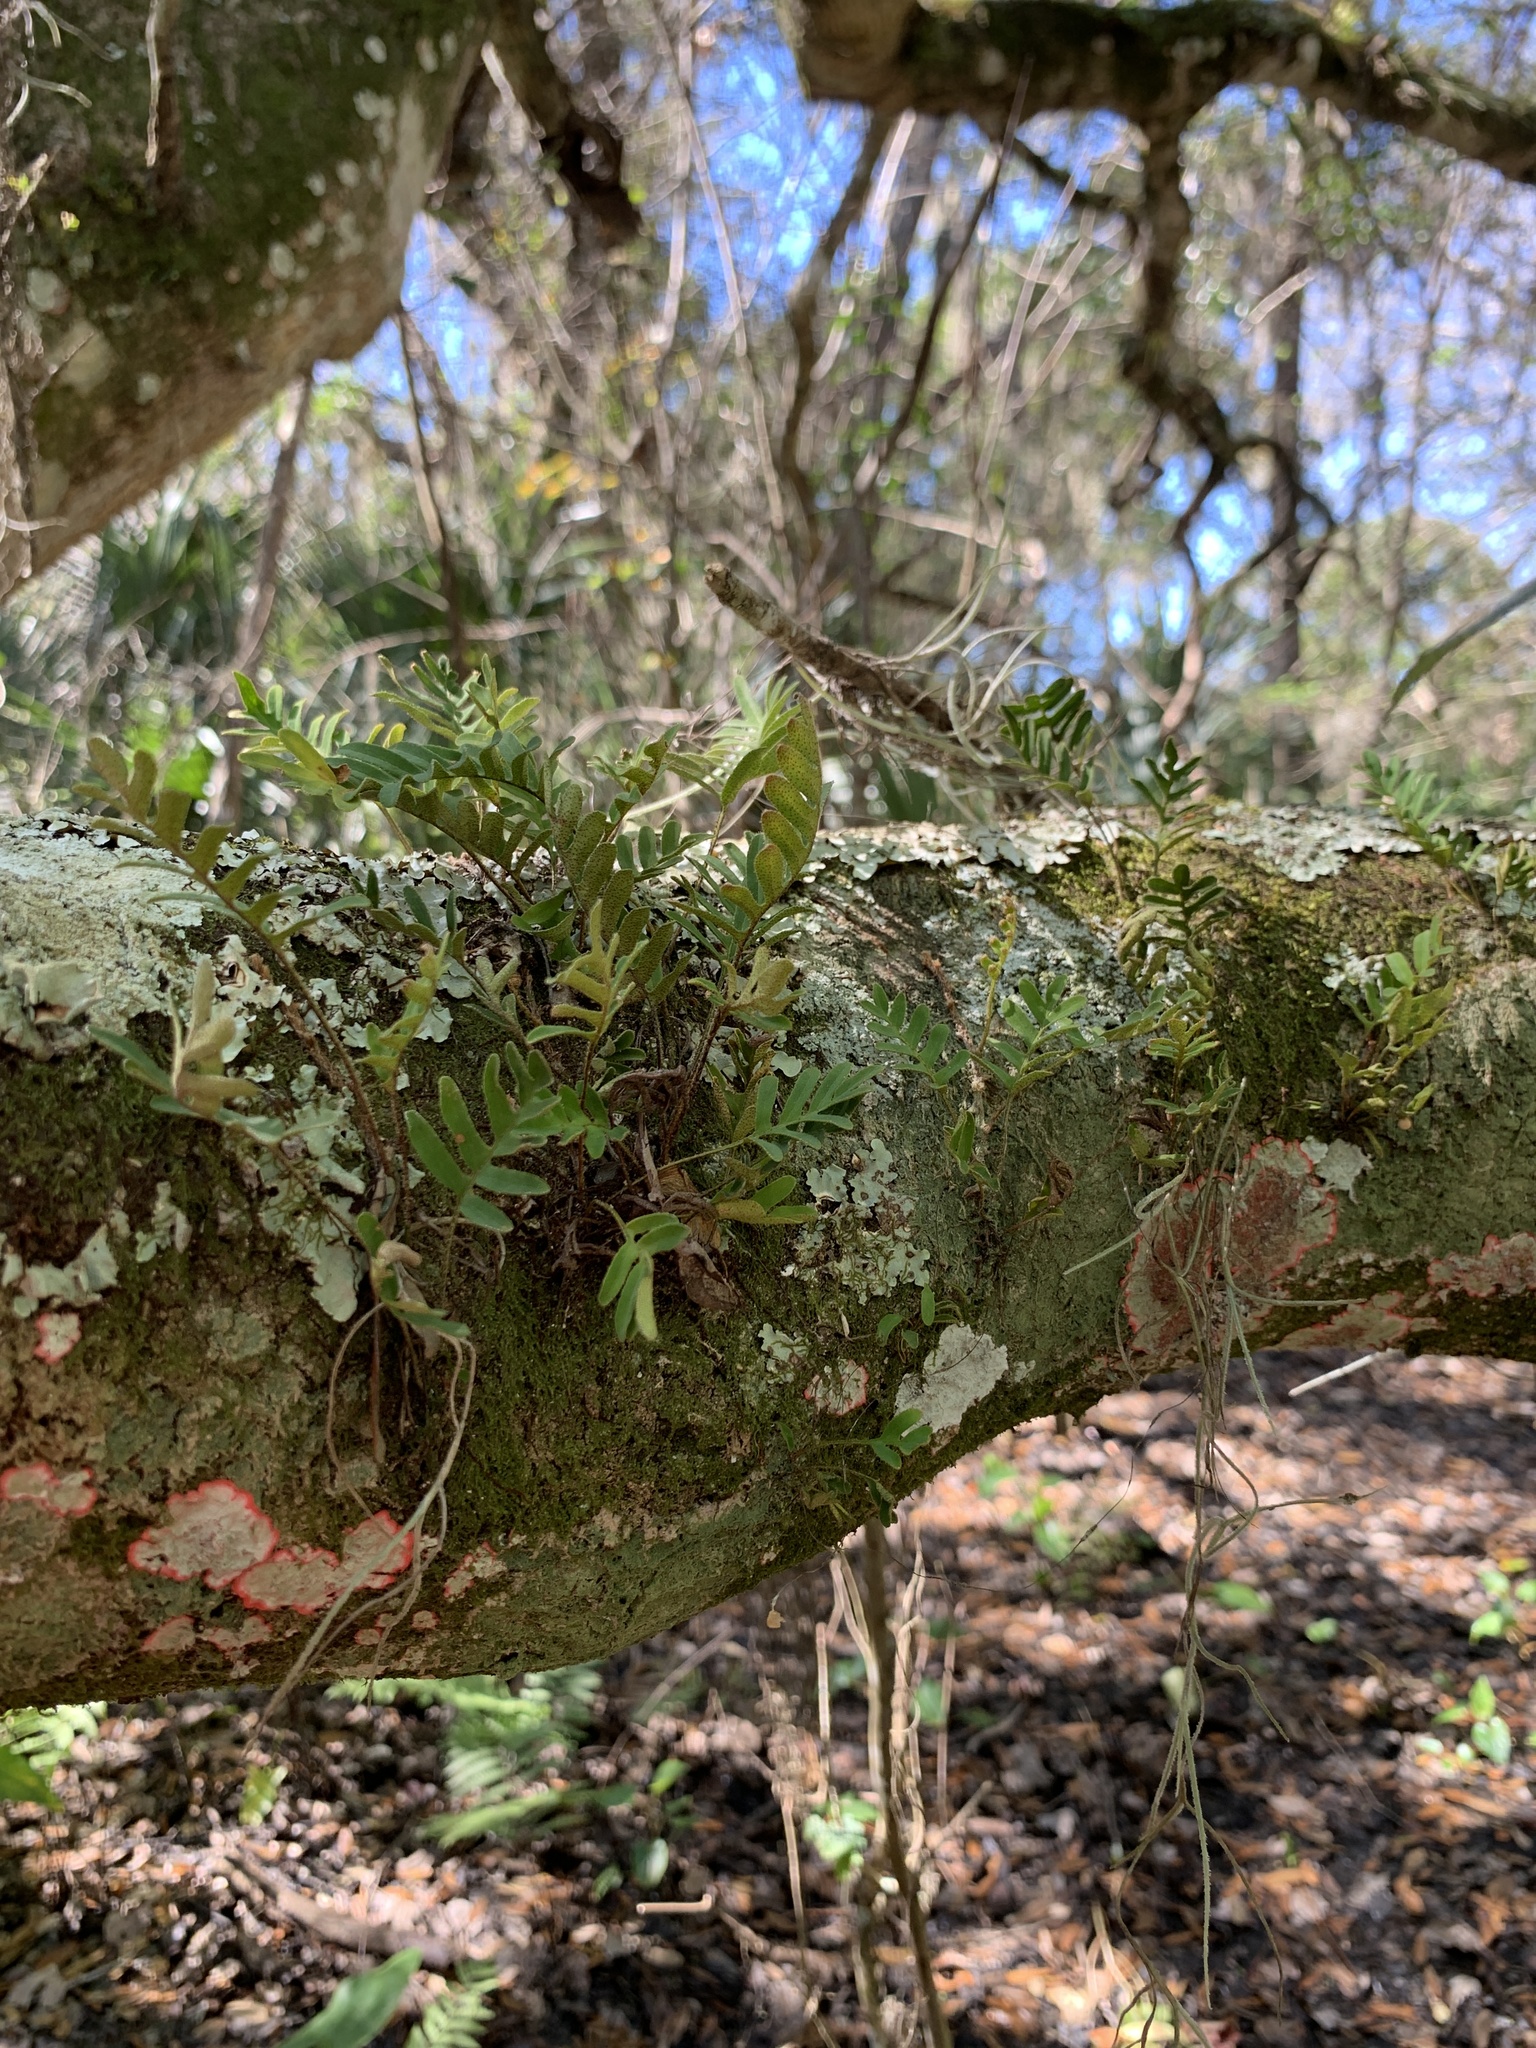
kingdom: Plantae
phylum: Tracheophyta
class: Polypodiopsida
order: Polypodiales
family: Polypodiaceae
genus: Pleopeltis
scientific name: Pleopeltis michauxiana
